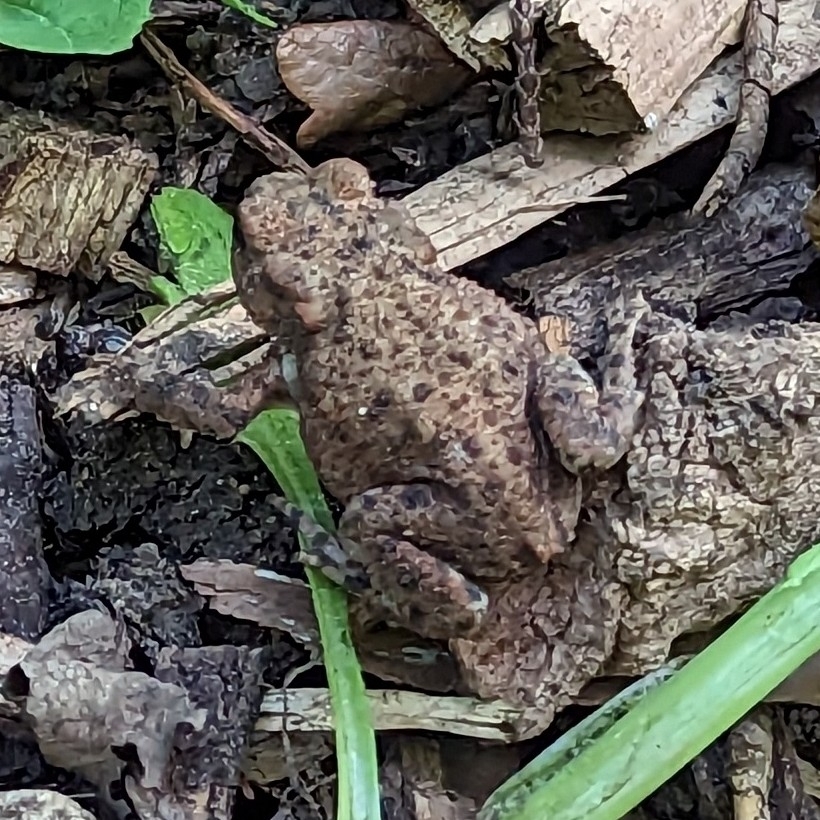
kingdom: Animalia
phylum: Chordata
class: Amphibia
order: Anura
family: Bufonidae
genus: Bufo
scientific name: Bufo bufo
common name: Common toad
